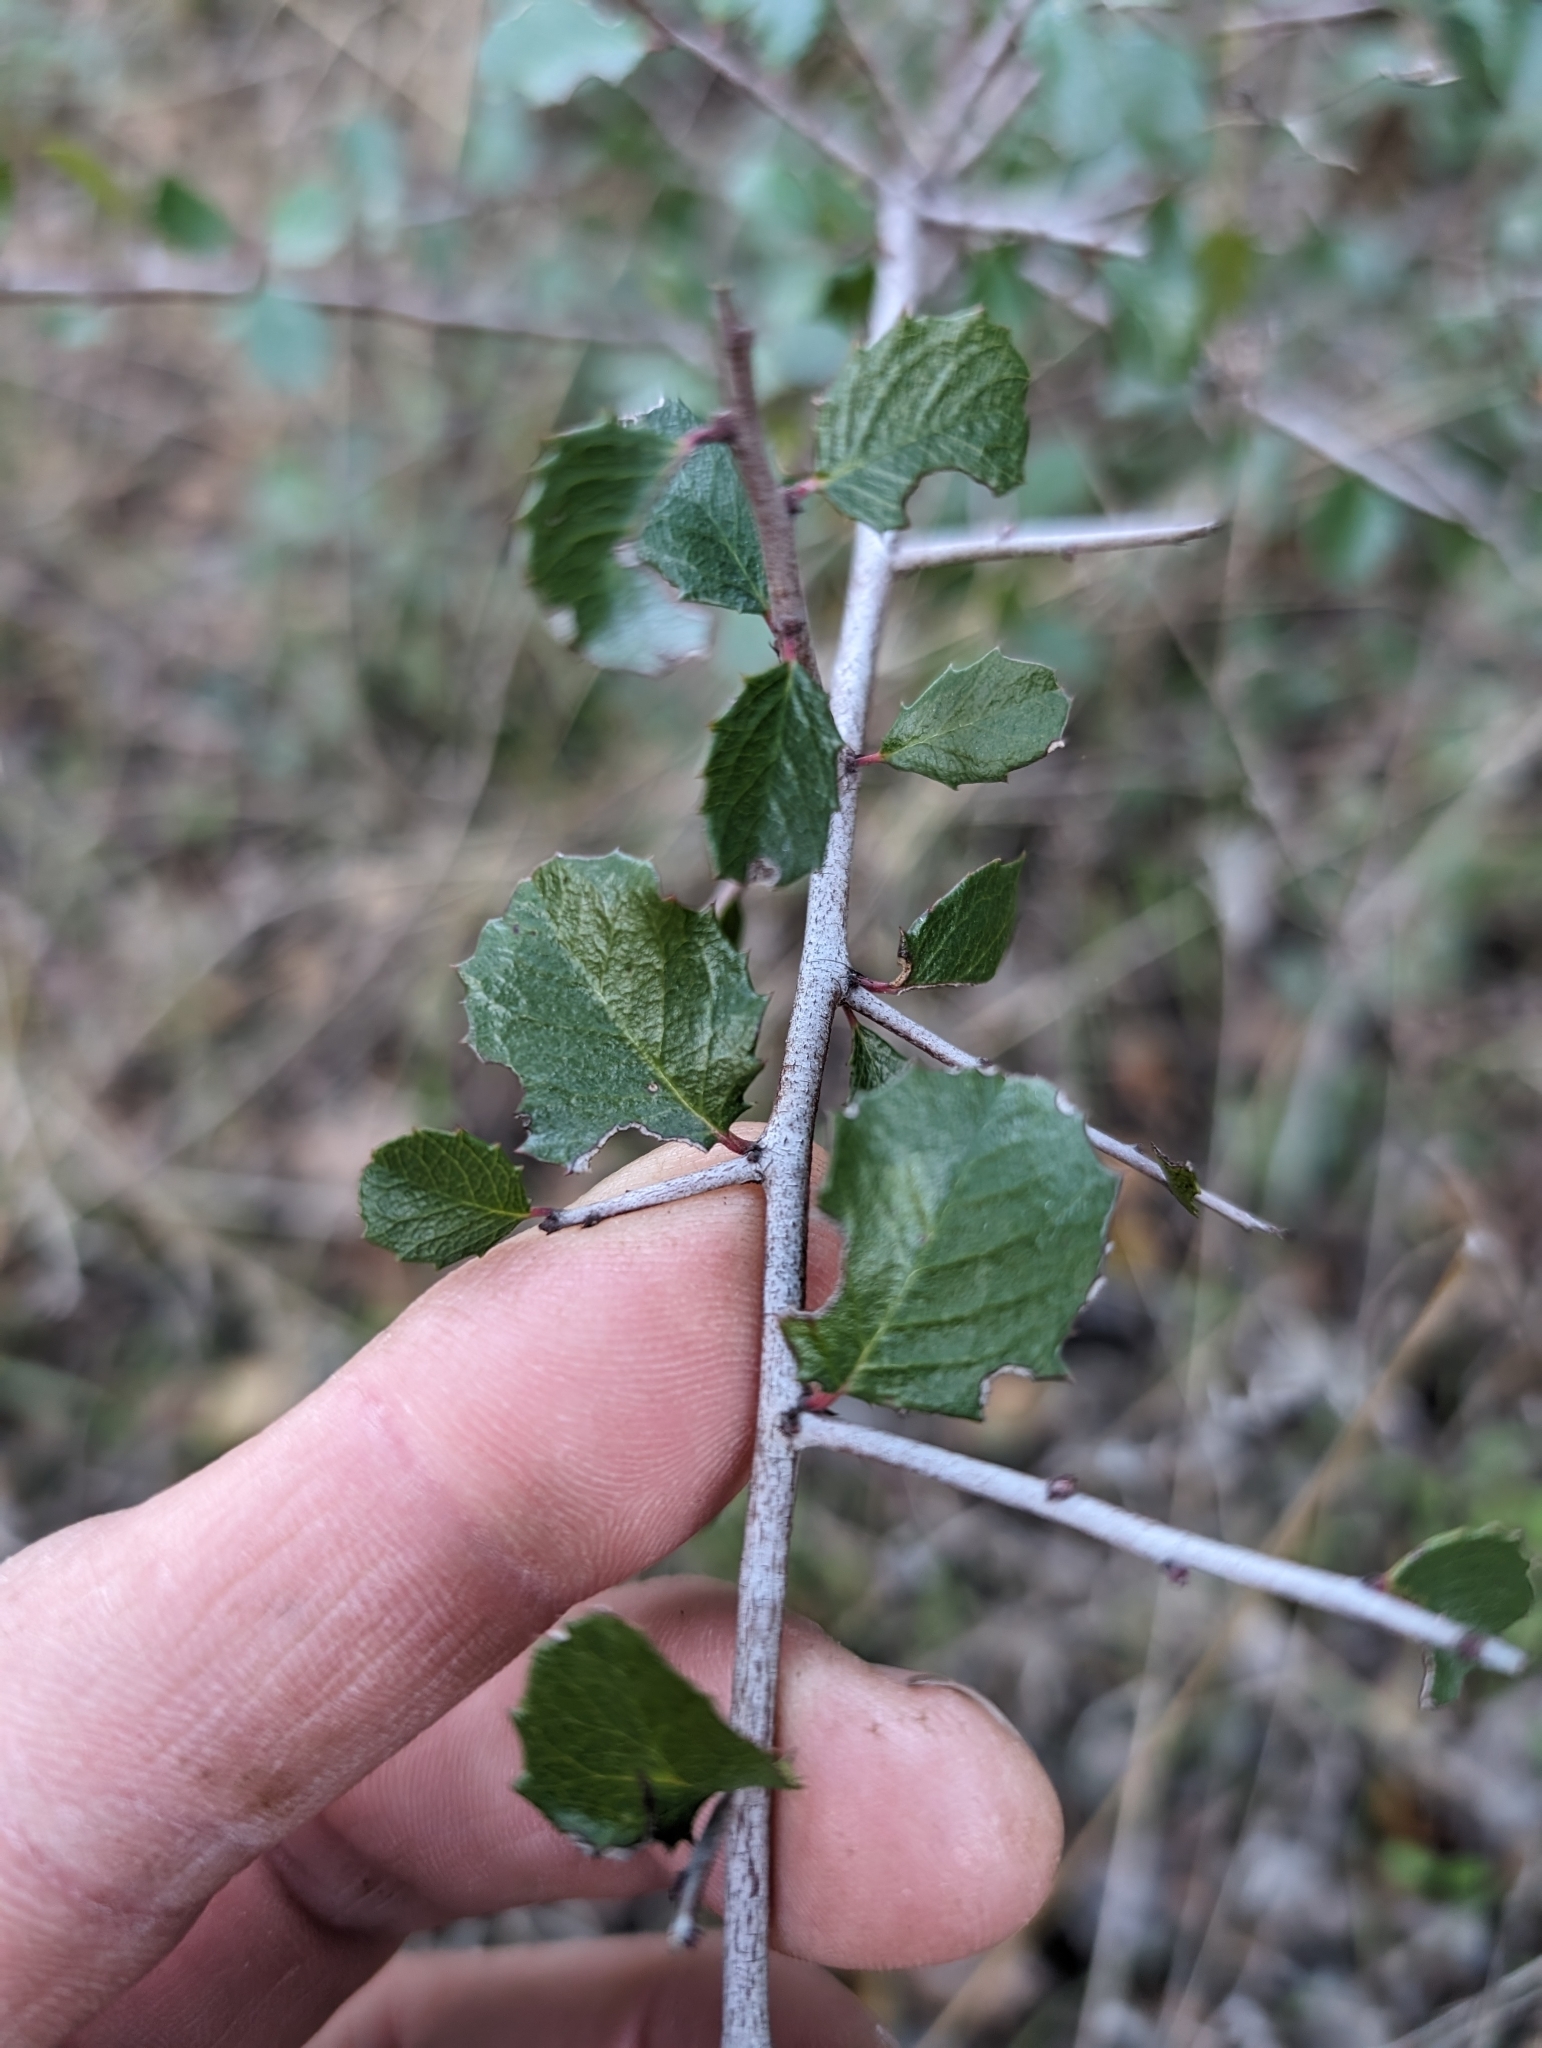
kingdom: Plantae
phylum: Tracheophyta
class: Magnoliopsida
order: Rosales
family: Rhamnaceae
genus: Endotropis
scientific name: Endotropis crocea
